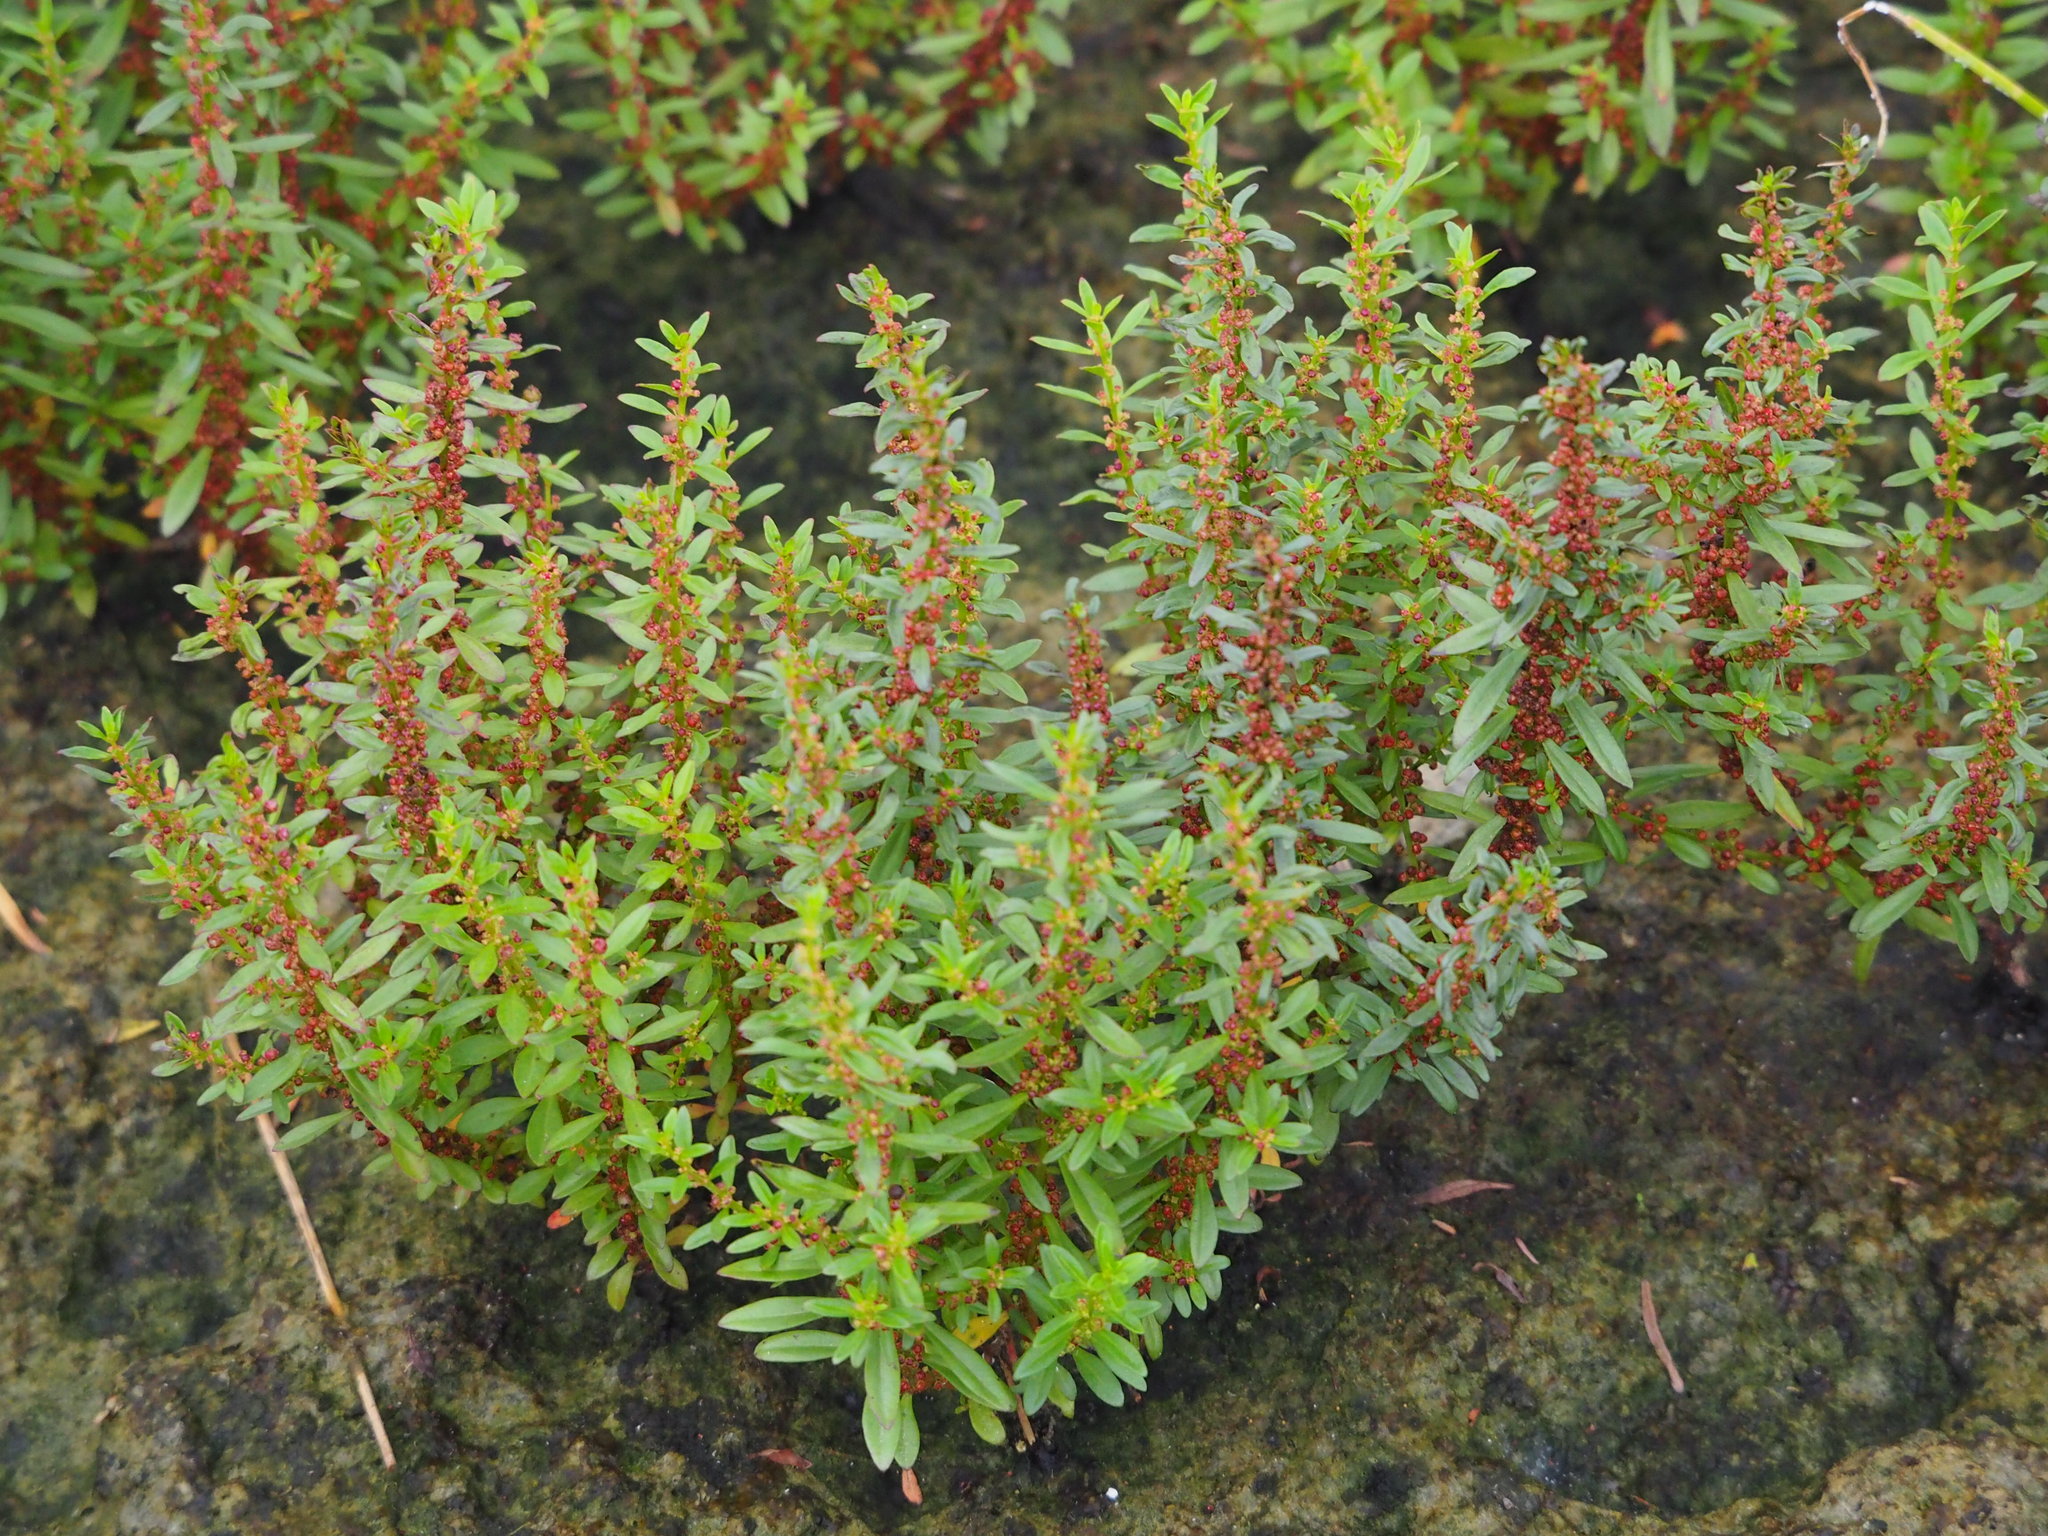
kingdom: Plantae
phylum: Tracheophyta
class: Magnoliopsida
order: Myrtales
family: Lythraceae
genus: Ammannia
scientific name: Ammannia auriculata
